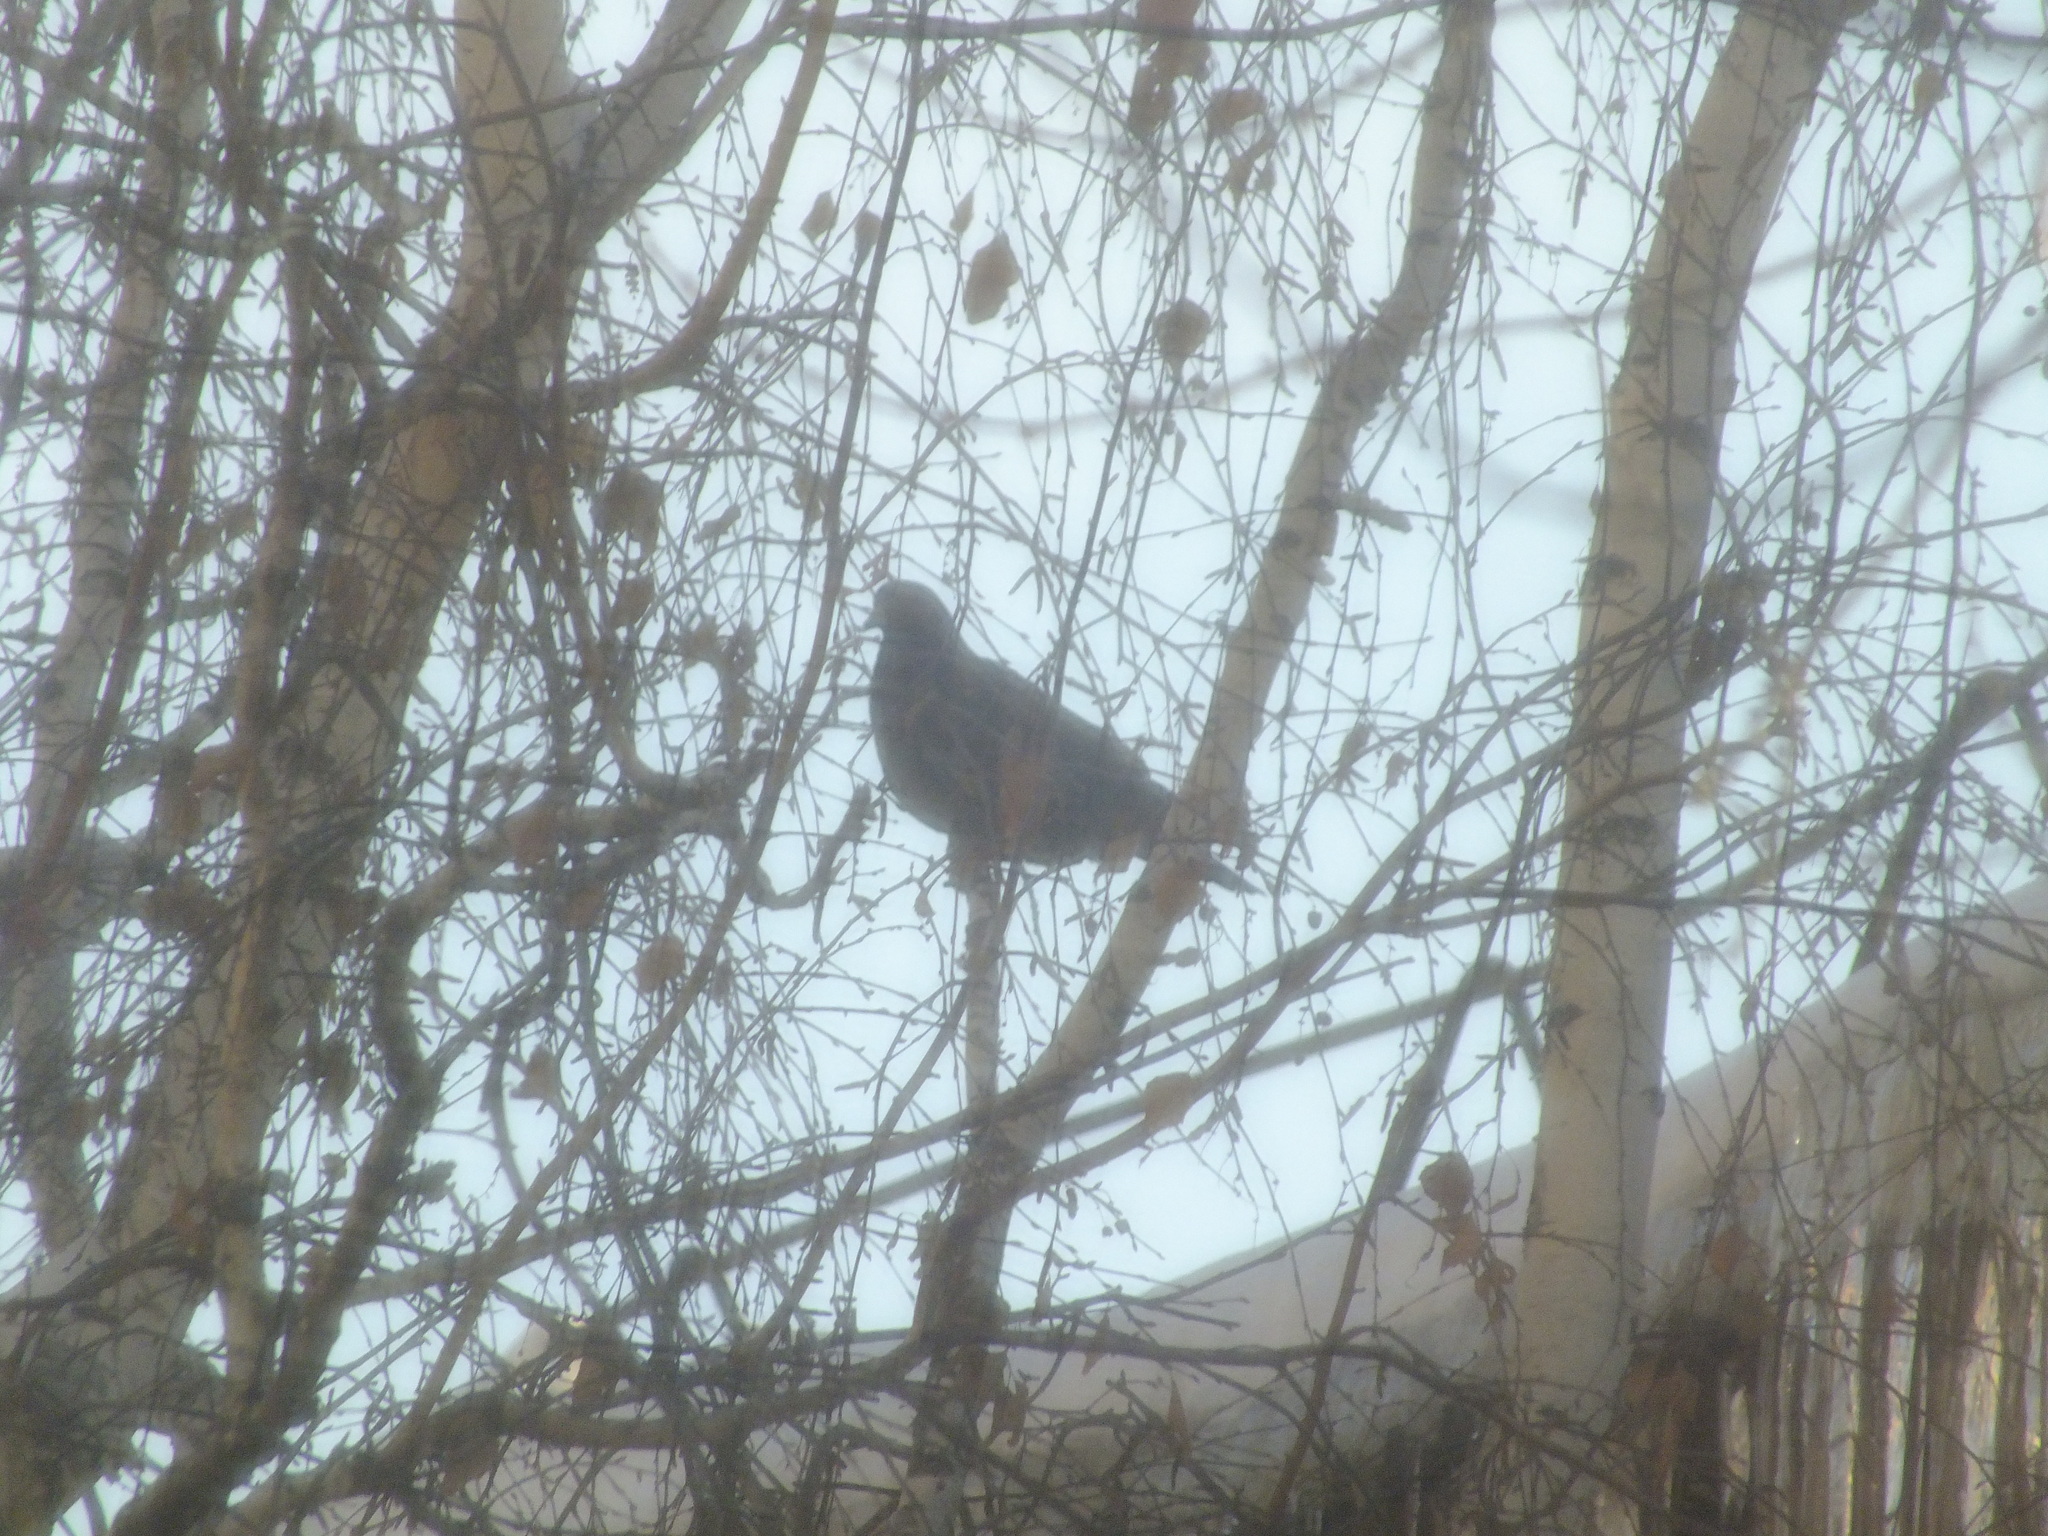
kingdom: Animalia
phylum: Chordata
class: Aves
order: Columbiformes
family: Columbidae
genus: Columba
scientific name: Columba livia
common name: Rock pigeon
